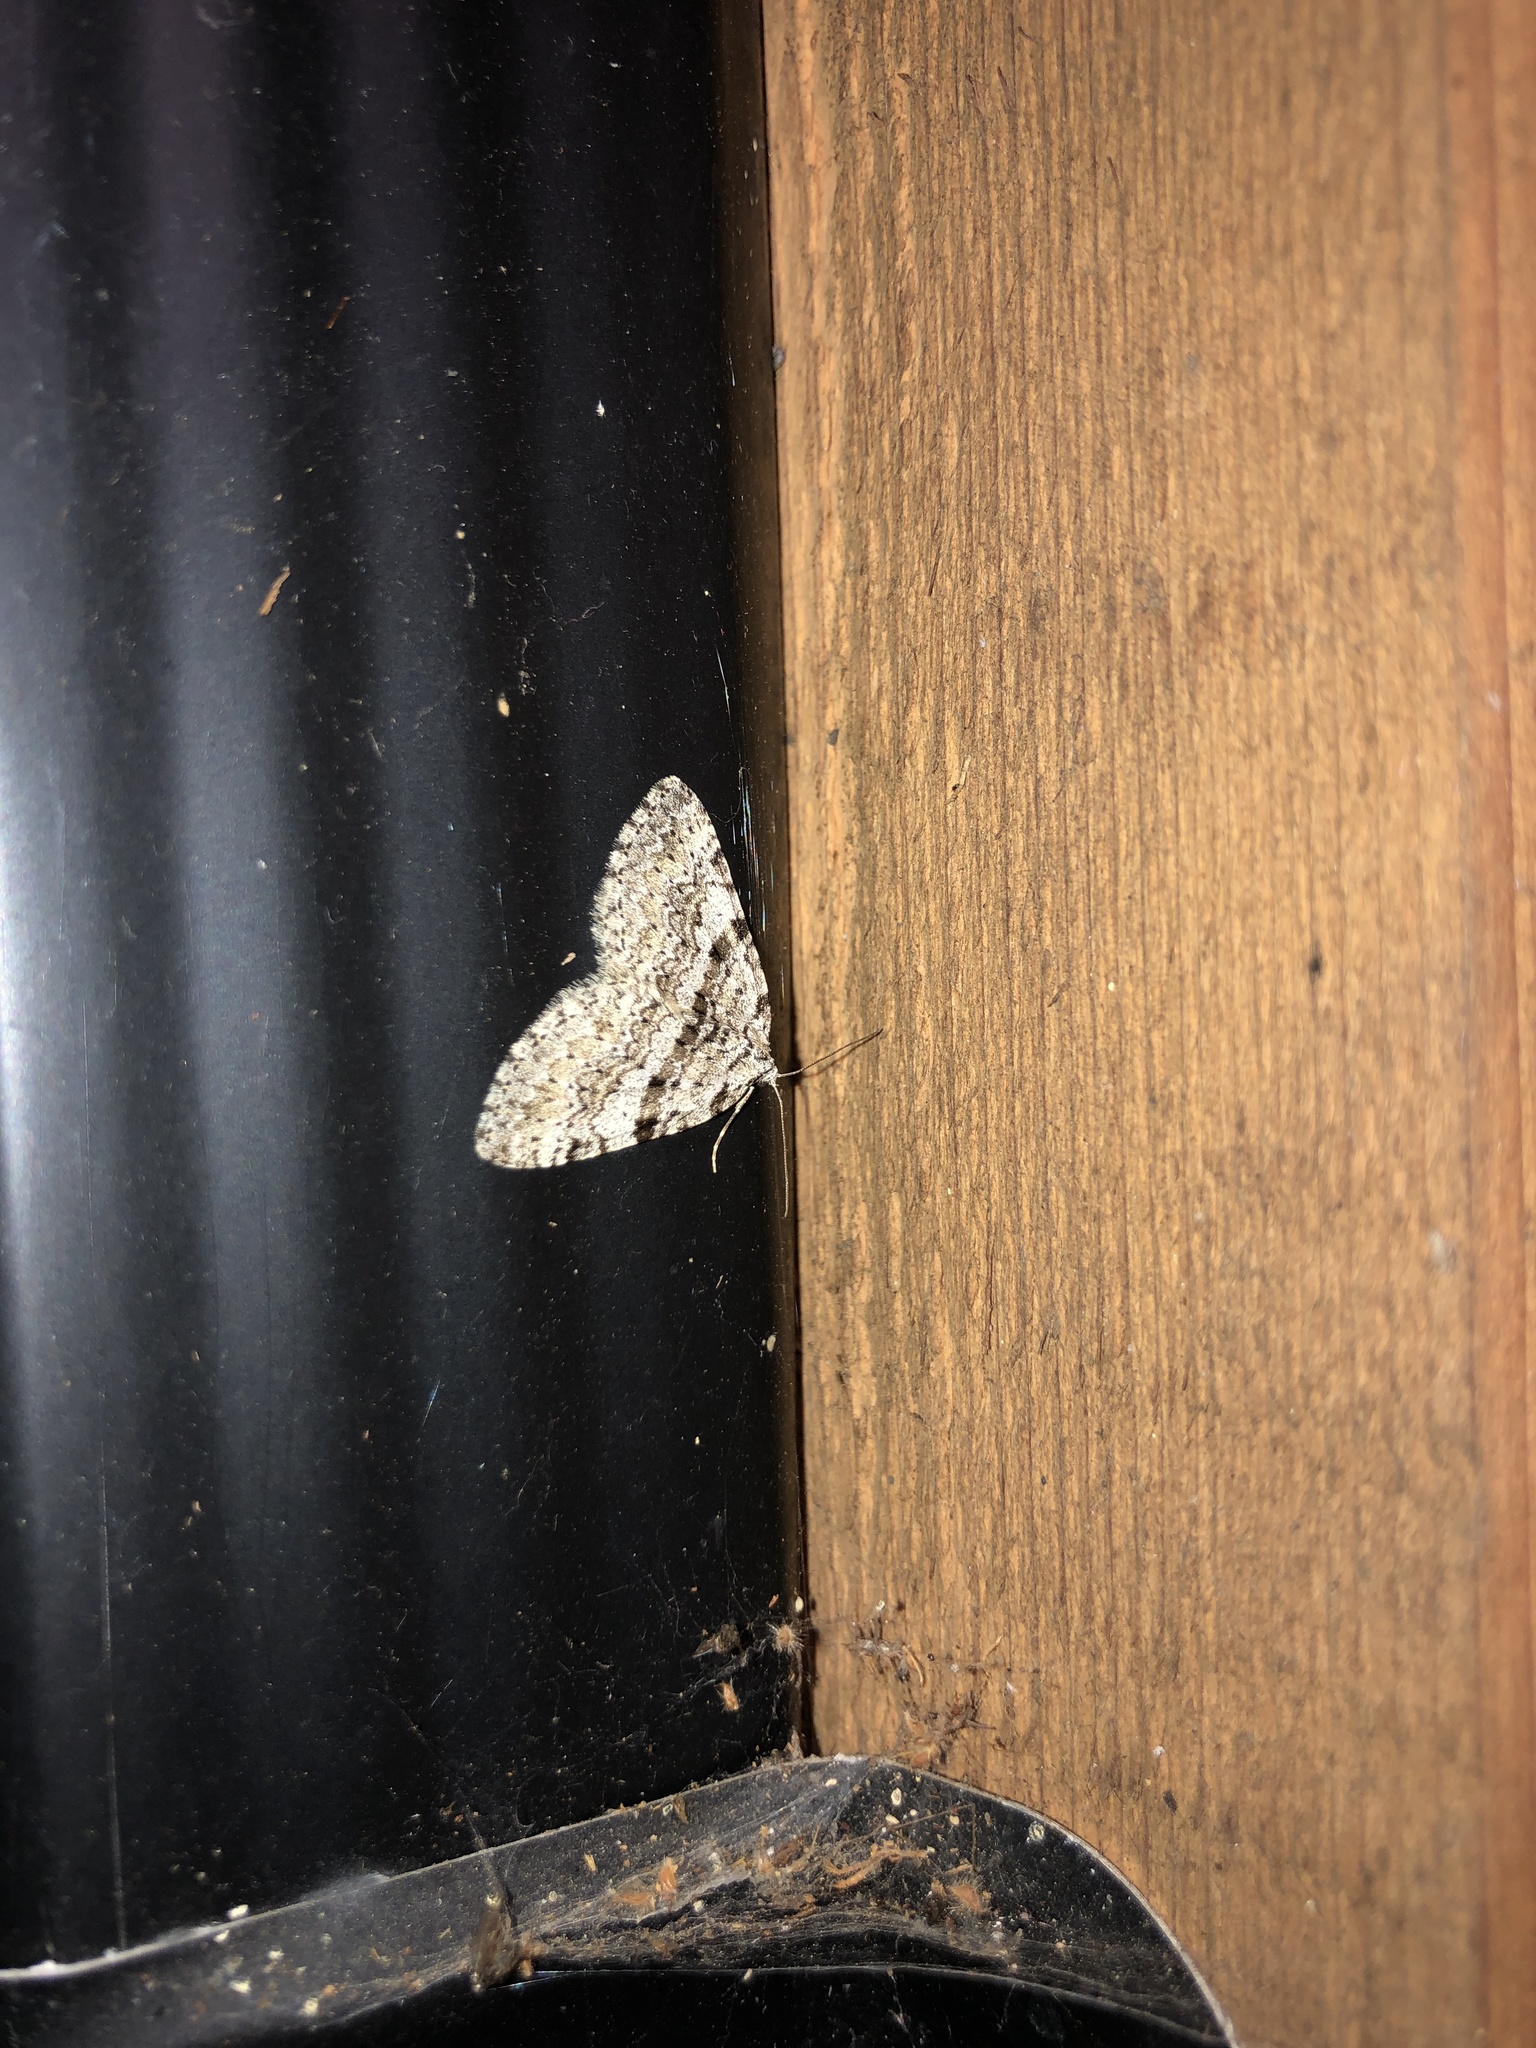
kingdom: Animalia
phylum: Arthropoda
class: Insecta
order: Lepidoptera
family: Geometridae
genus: Perizoma
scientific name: Perizoma curvilinea
